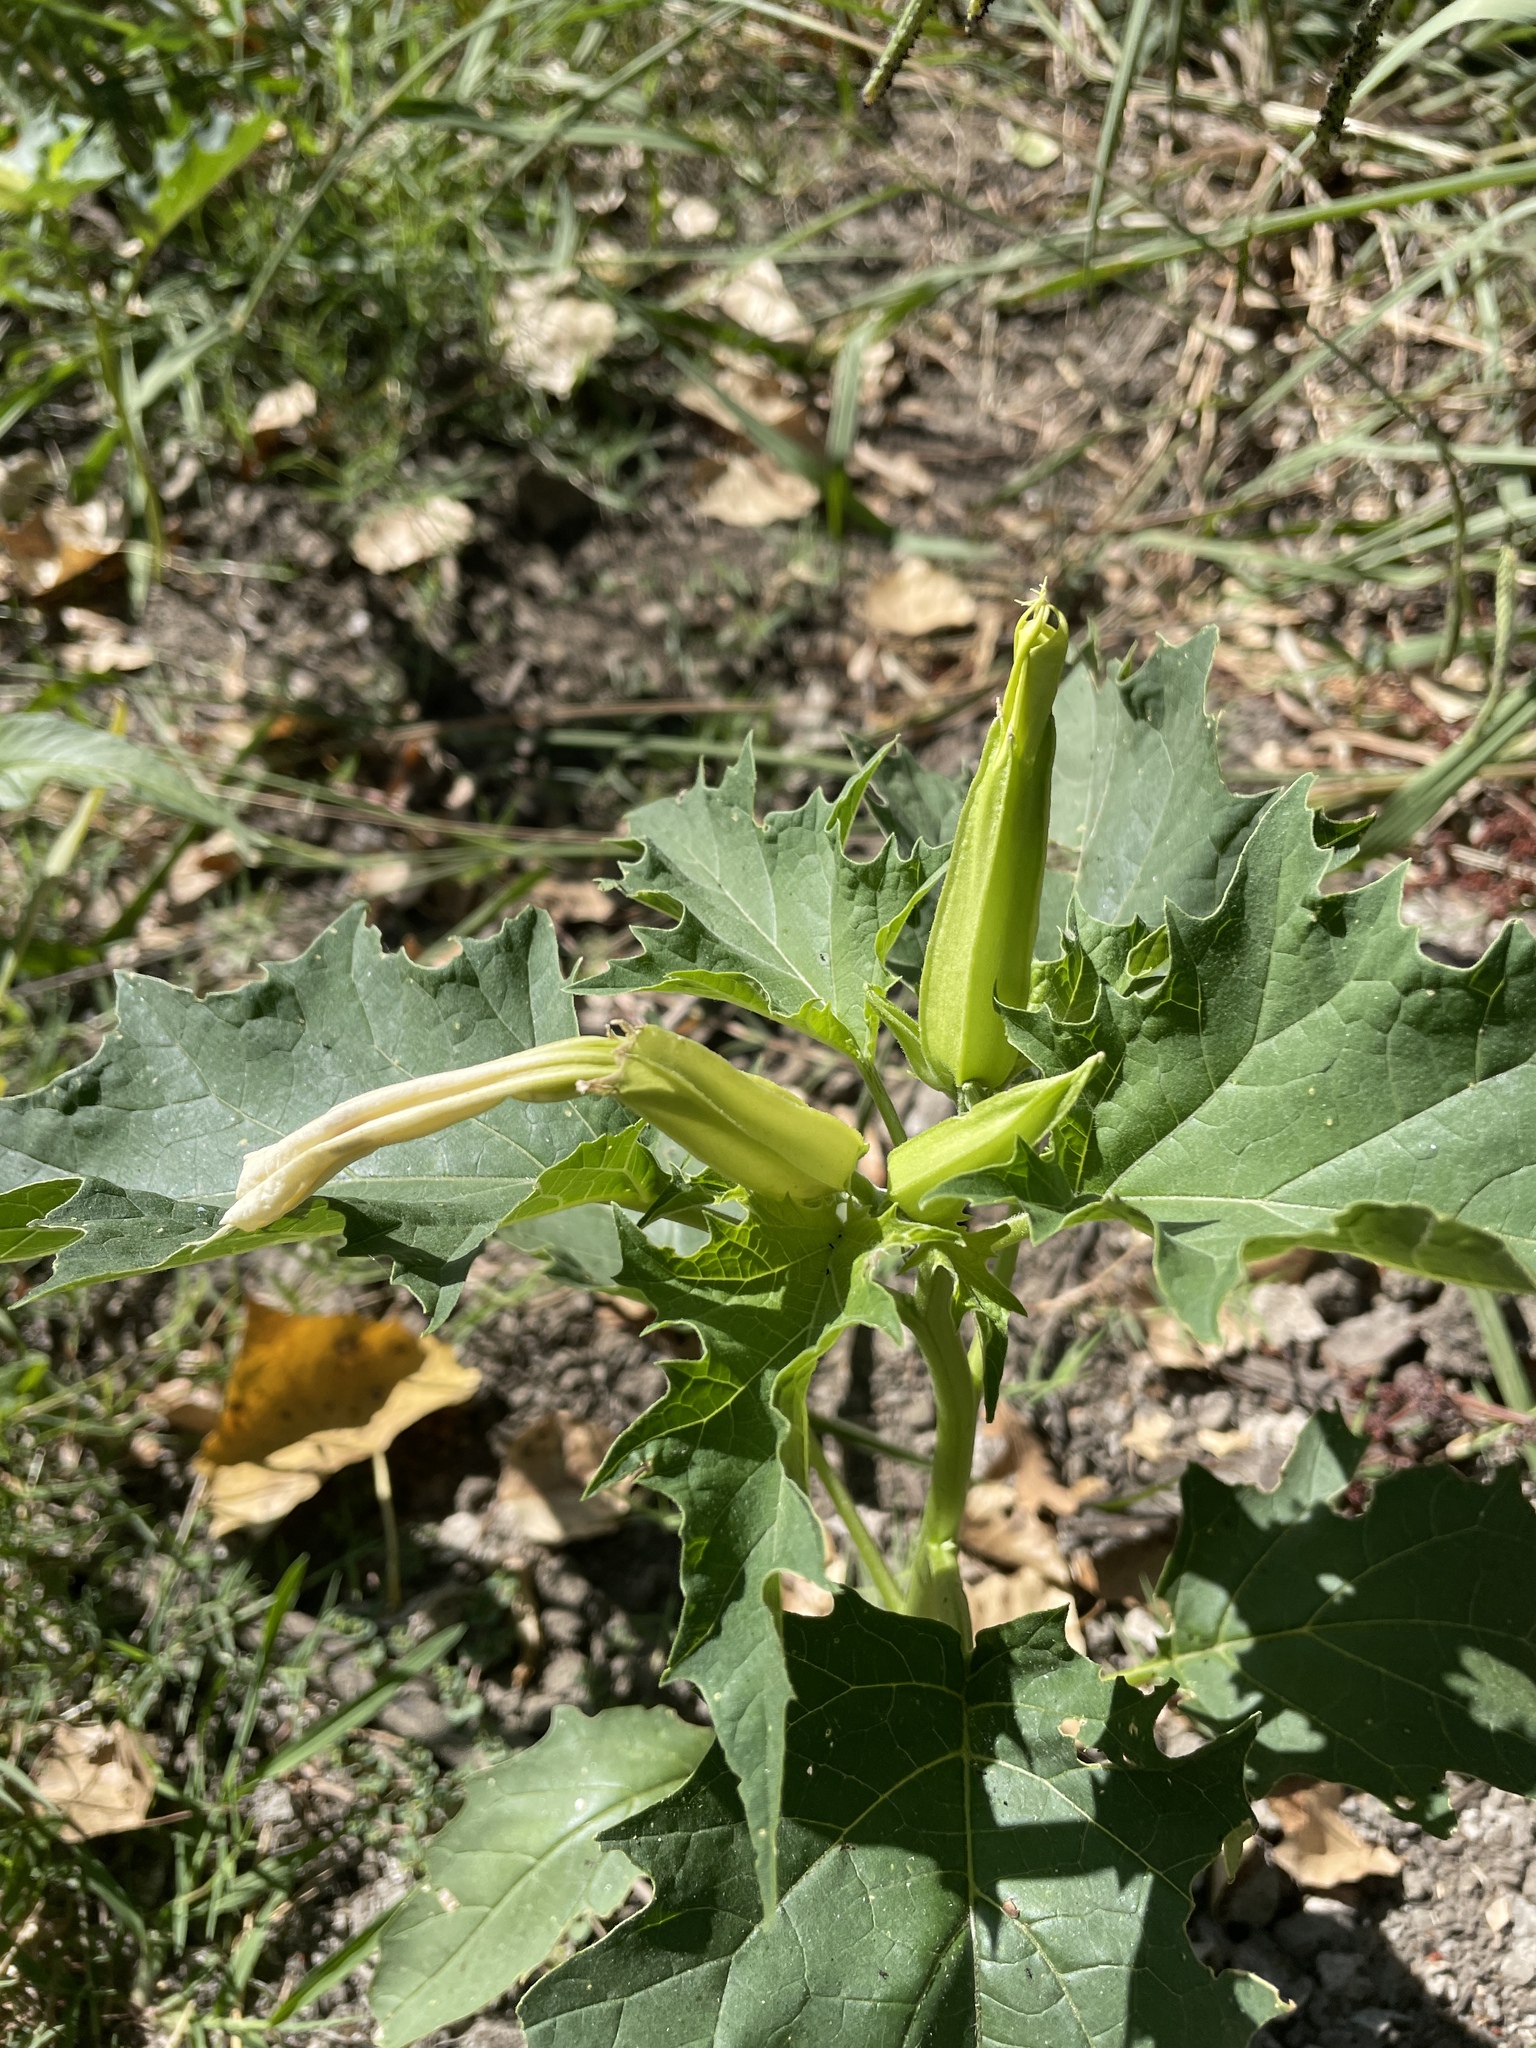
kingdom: Plantae
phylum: Tracheophyta
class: Magnoliopsida
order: Solanales
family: Solanaceae
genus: Datura
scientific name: Datura stramonium
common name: Thorn-apple
